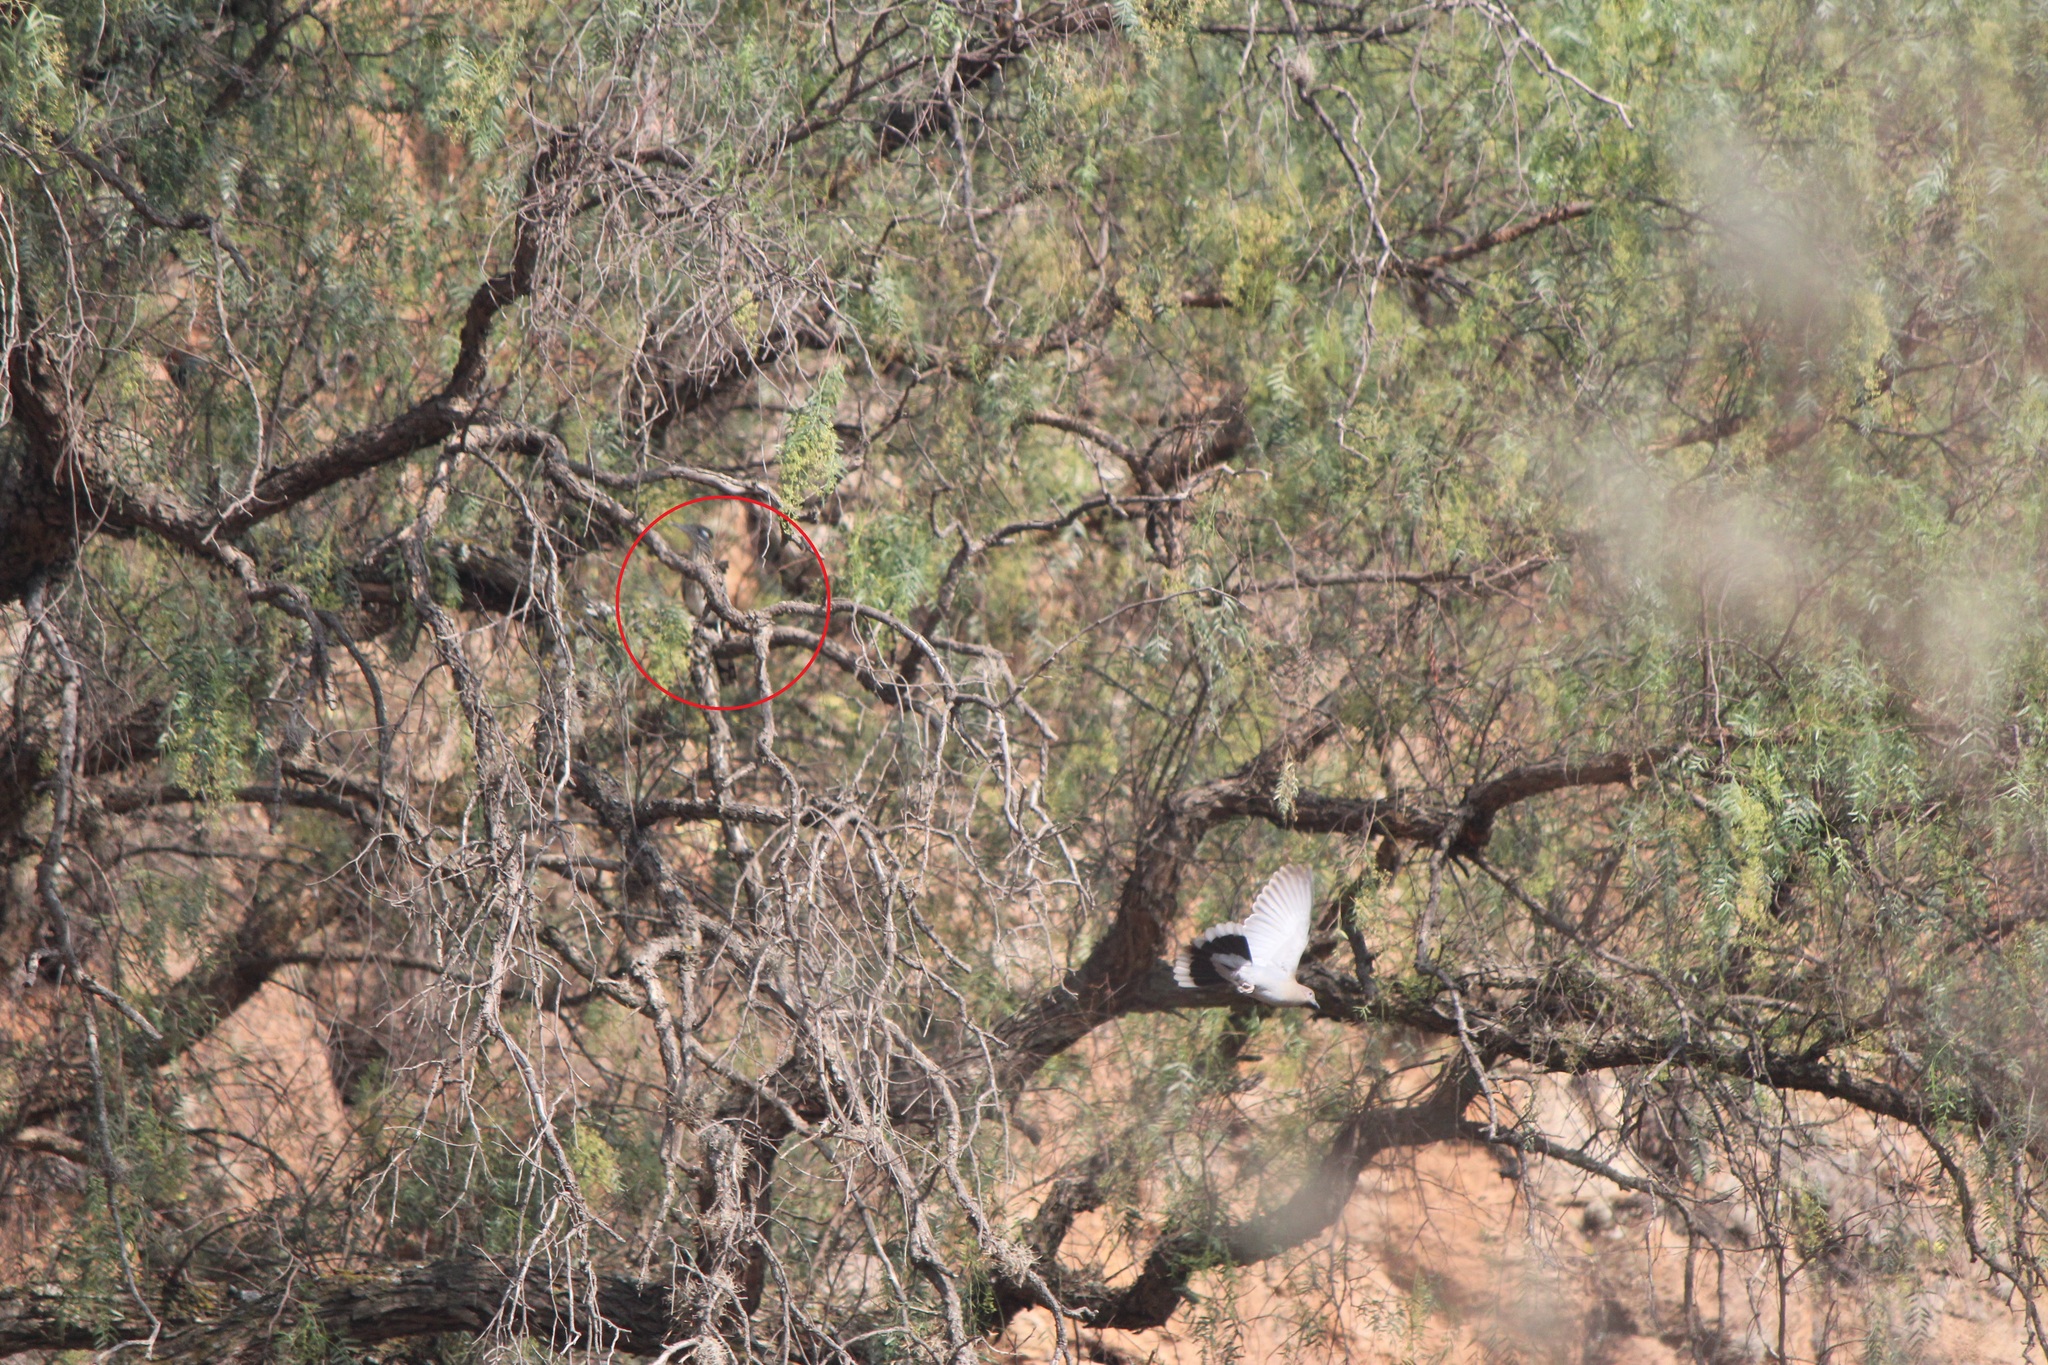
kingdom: Animalia
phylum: Chordata
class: Aves
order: Cuculiformes
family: Cuculidae
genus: Geococcyx
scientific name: Geococcyx californianus
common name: Greater roadrunner
